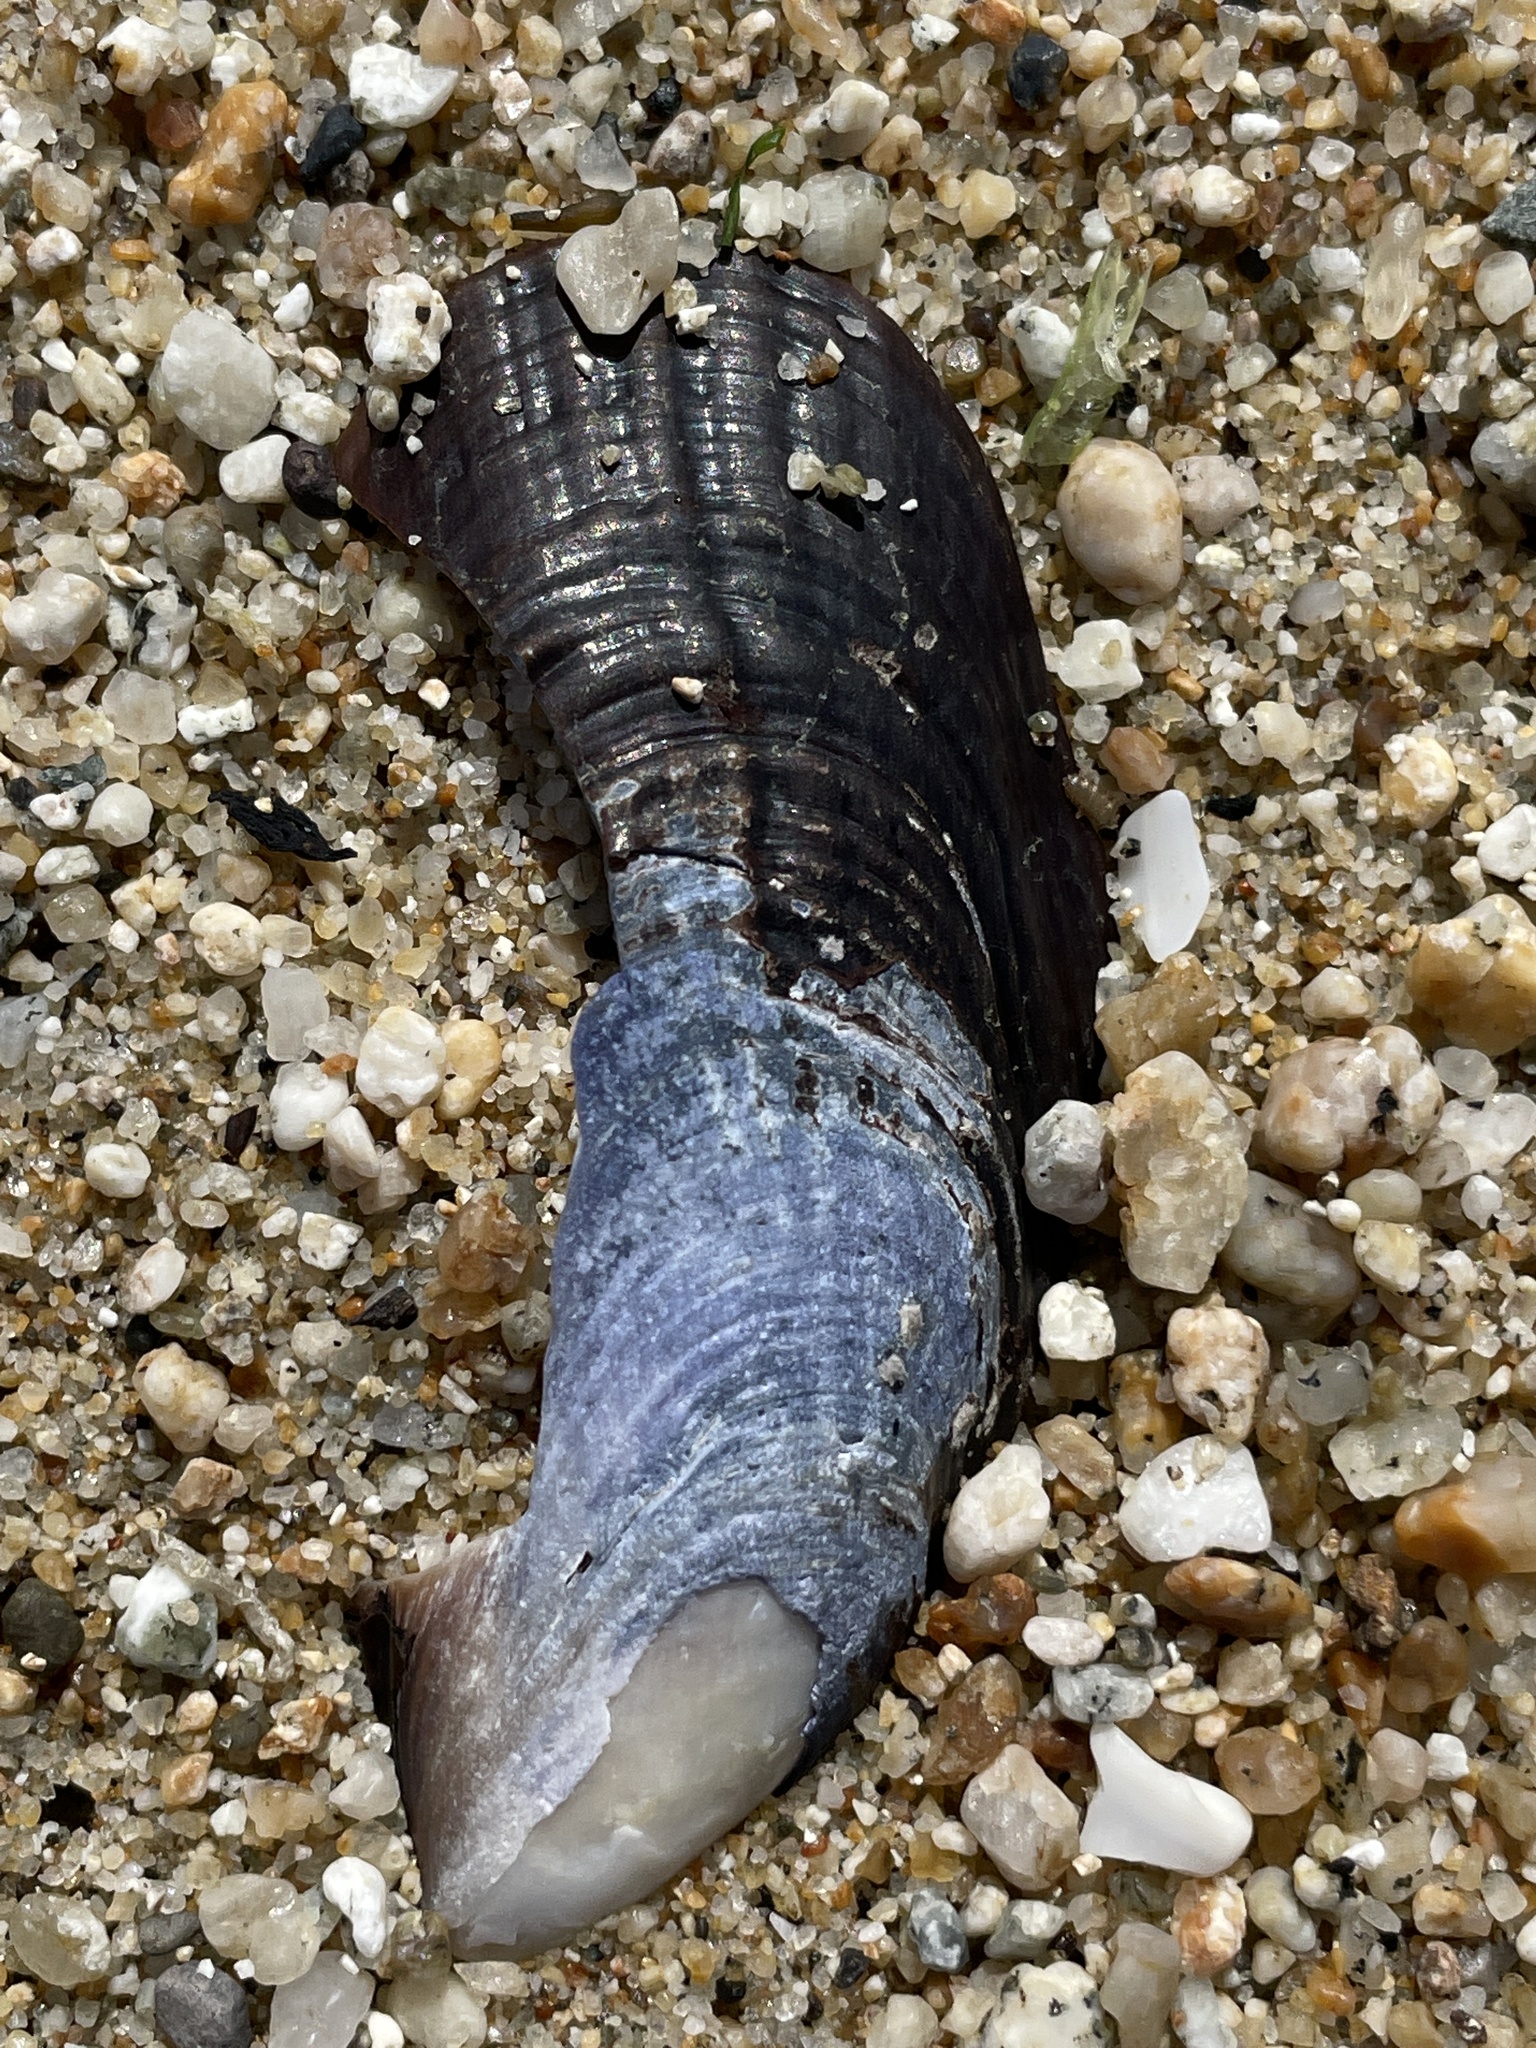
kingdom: Animalia
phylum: Mollusca
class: Bivalvia
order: Mytilida
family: Mytilidae
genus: Mytilus
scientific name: Mytilus californianus
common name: California mussel
